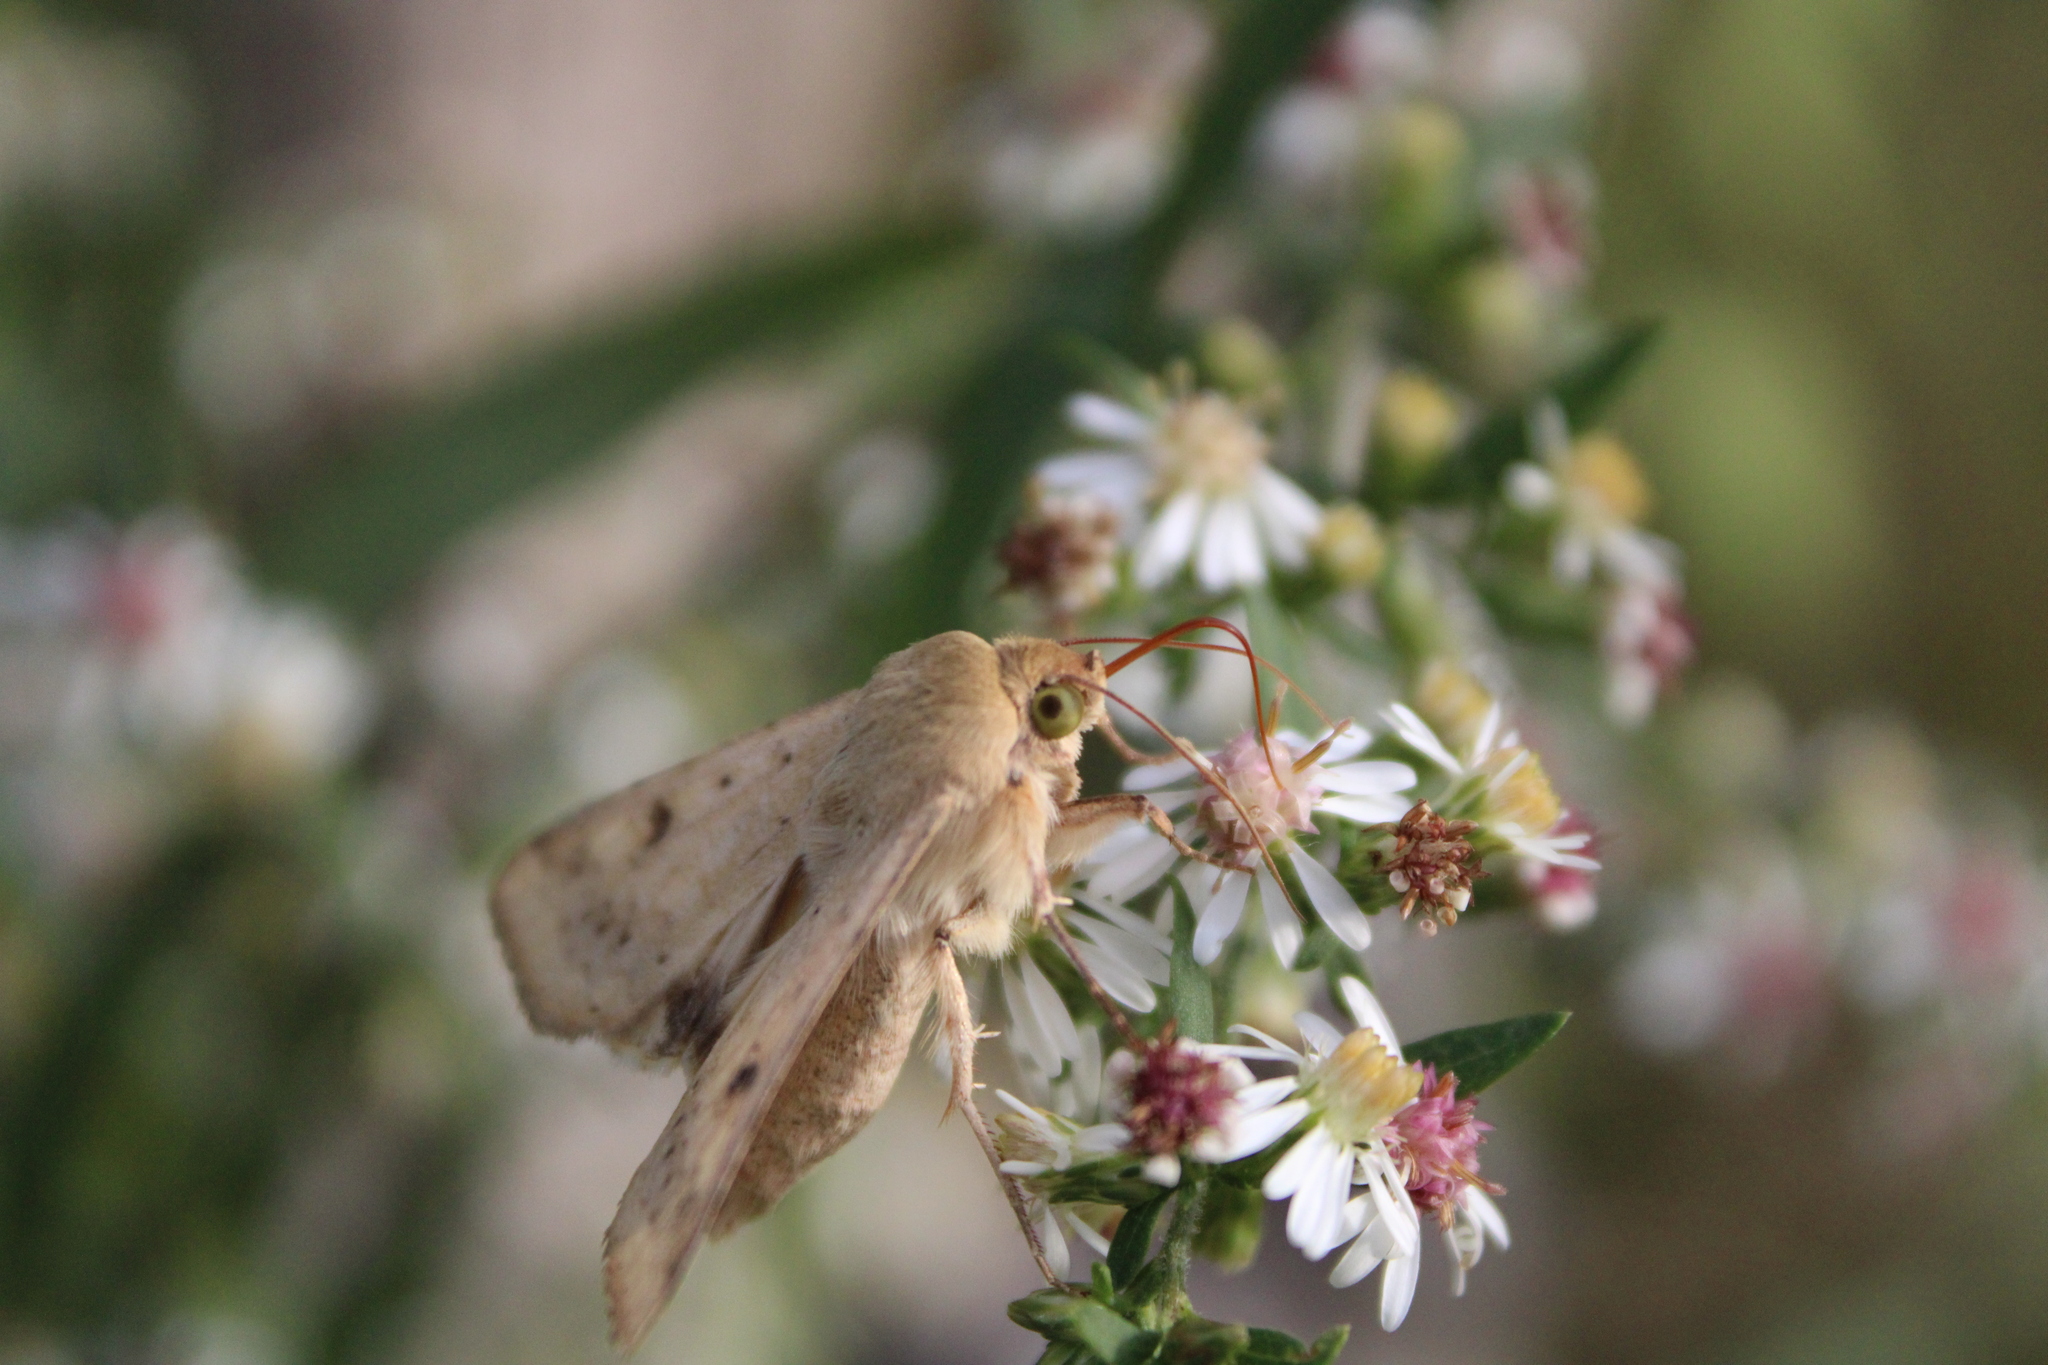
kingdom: Animalia
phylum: Arthropoda
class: Insecta
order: Lepidoptera
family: Noctuidae
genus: Helicoverpa
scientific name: Helicoverpa zea
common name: Bollworm
